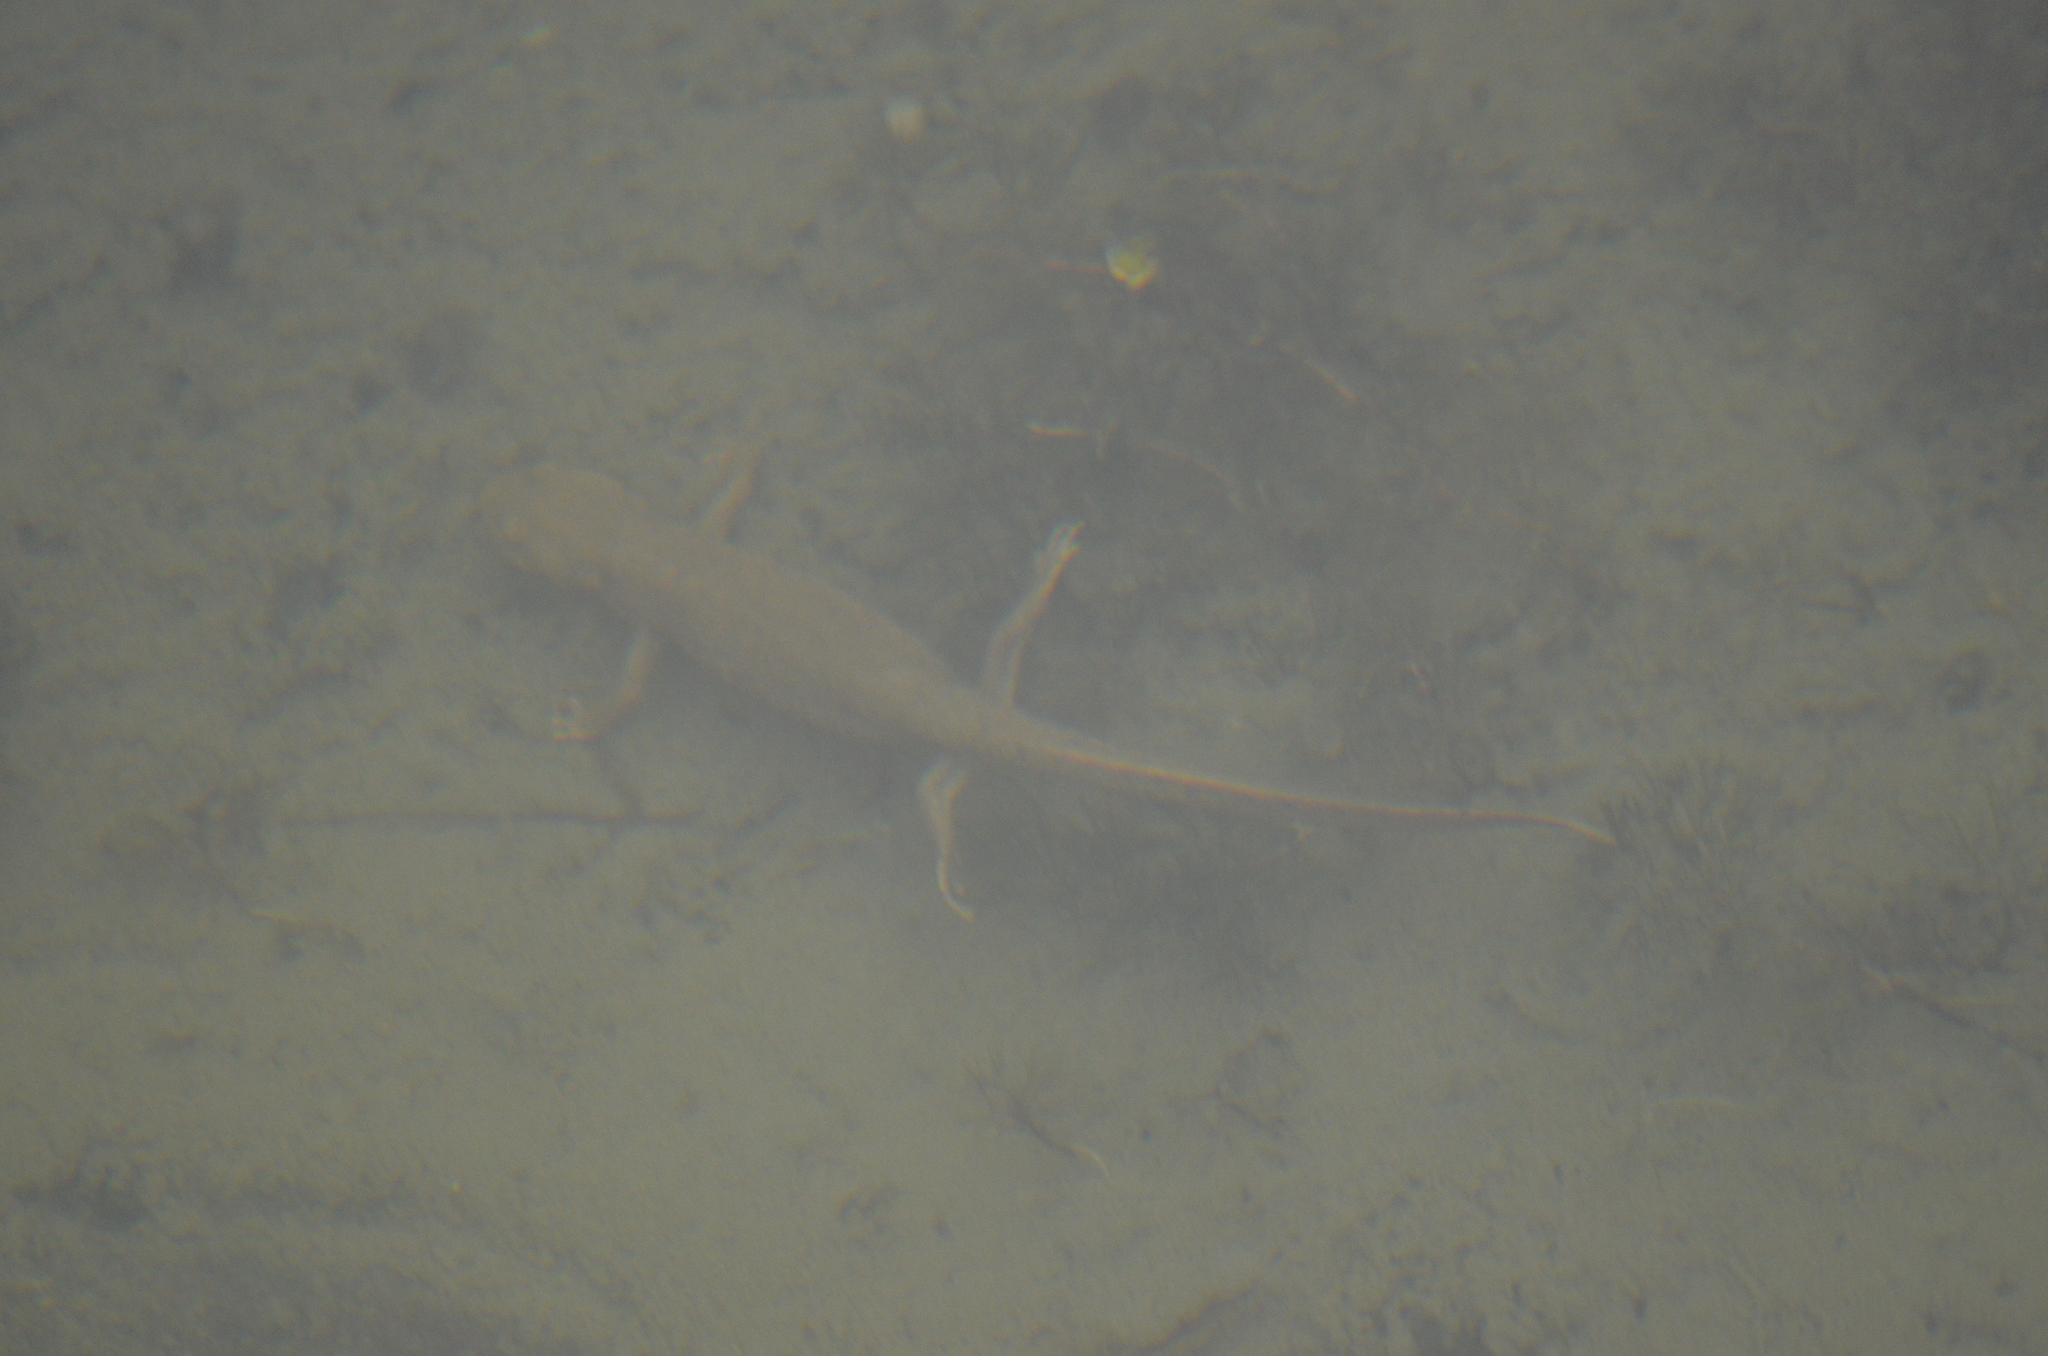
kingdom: Animalia
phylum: Chordata
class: Amphibia
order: Caudata
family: Salamandridae
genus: Calotriton
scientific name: Calotriton asper
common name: Pyrenean brook salamander
